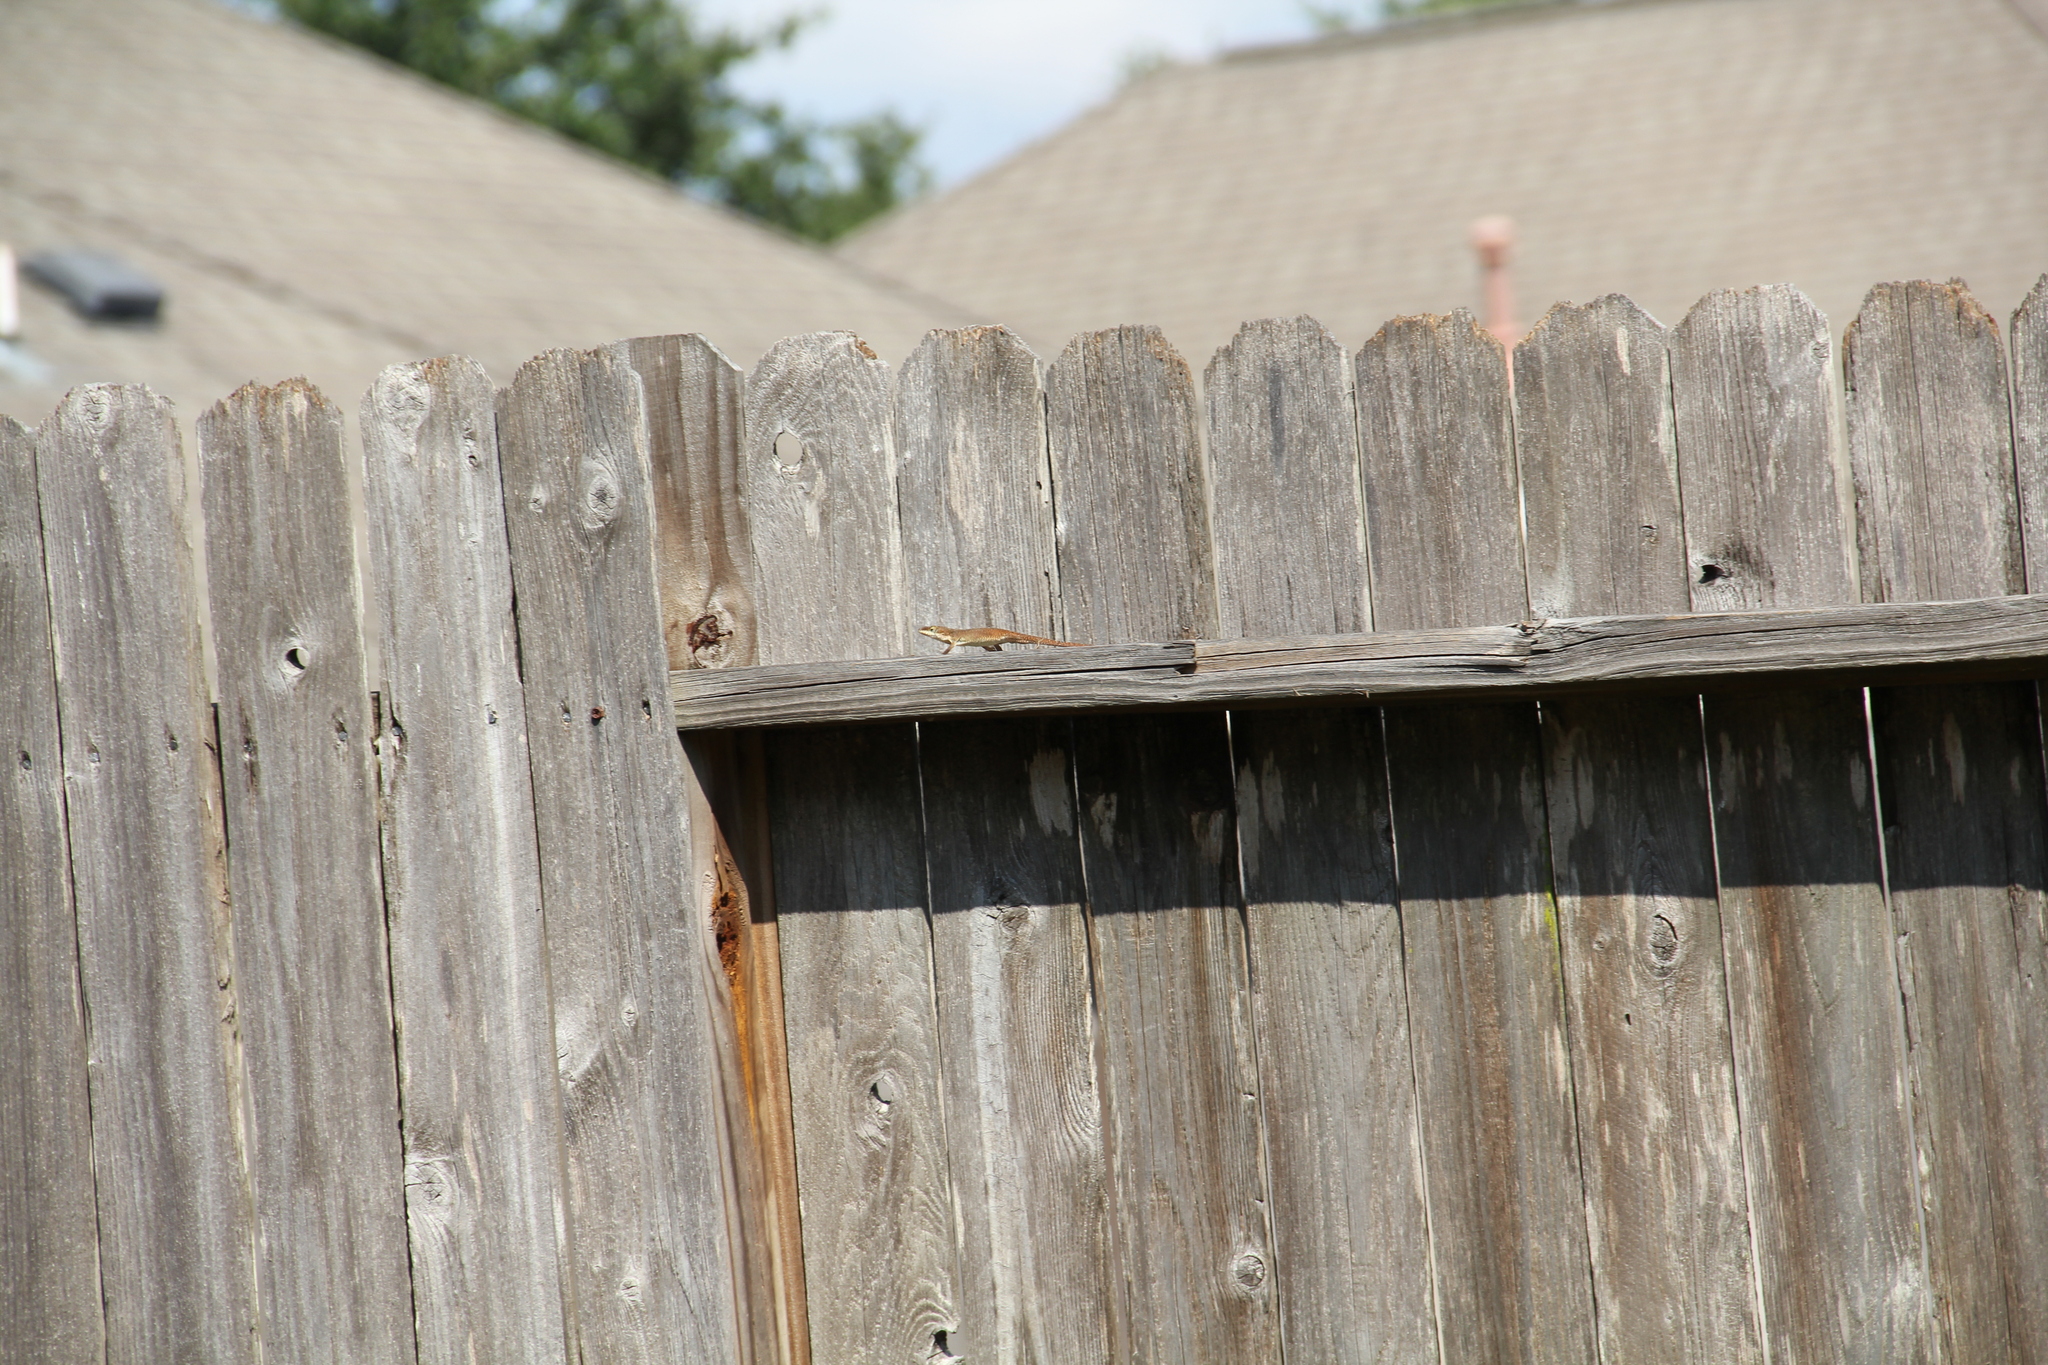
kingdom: Animalia
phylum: Chordata
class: Squamata
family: Dactyloidae
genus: Anolis
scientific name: Anolis carolinensis
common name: Green anole
